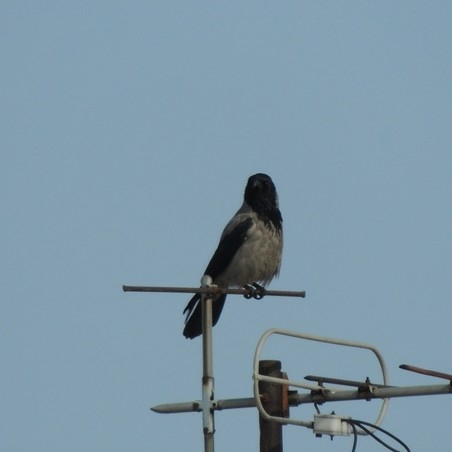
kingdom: Animalia
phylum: Chordata
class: Aves
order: Passeriformes
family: Corvidae
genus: Corvus
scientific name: Corvus cornix
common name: Hooded crow
